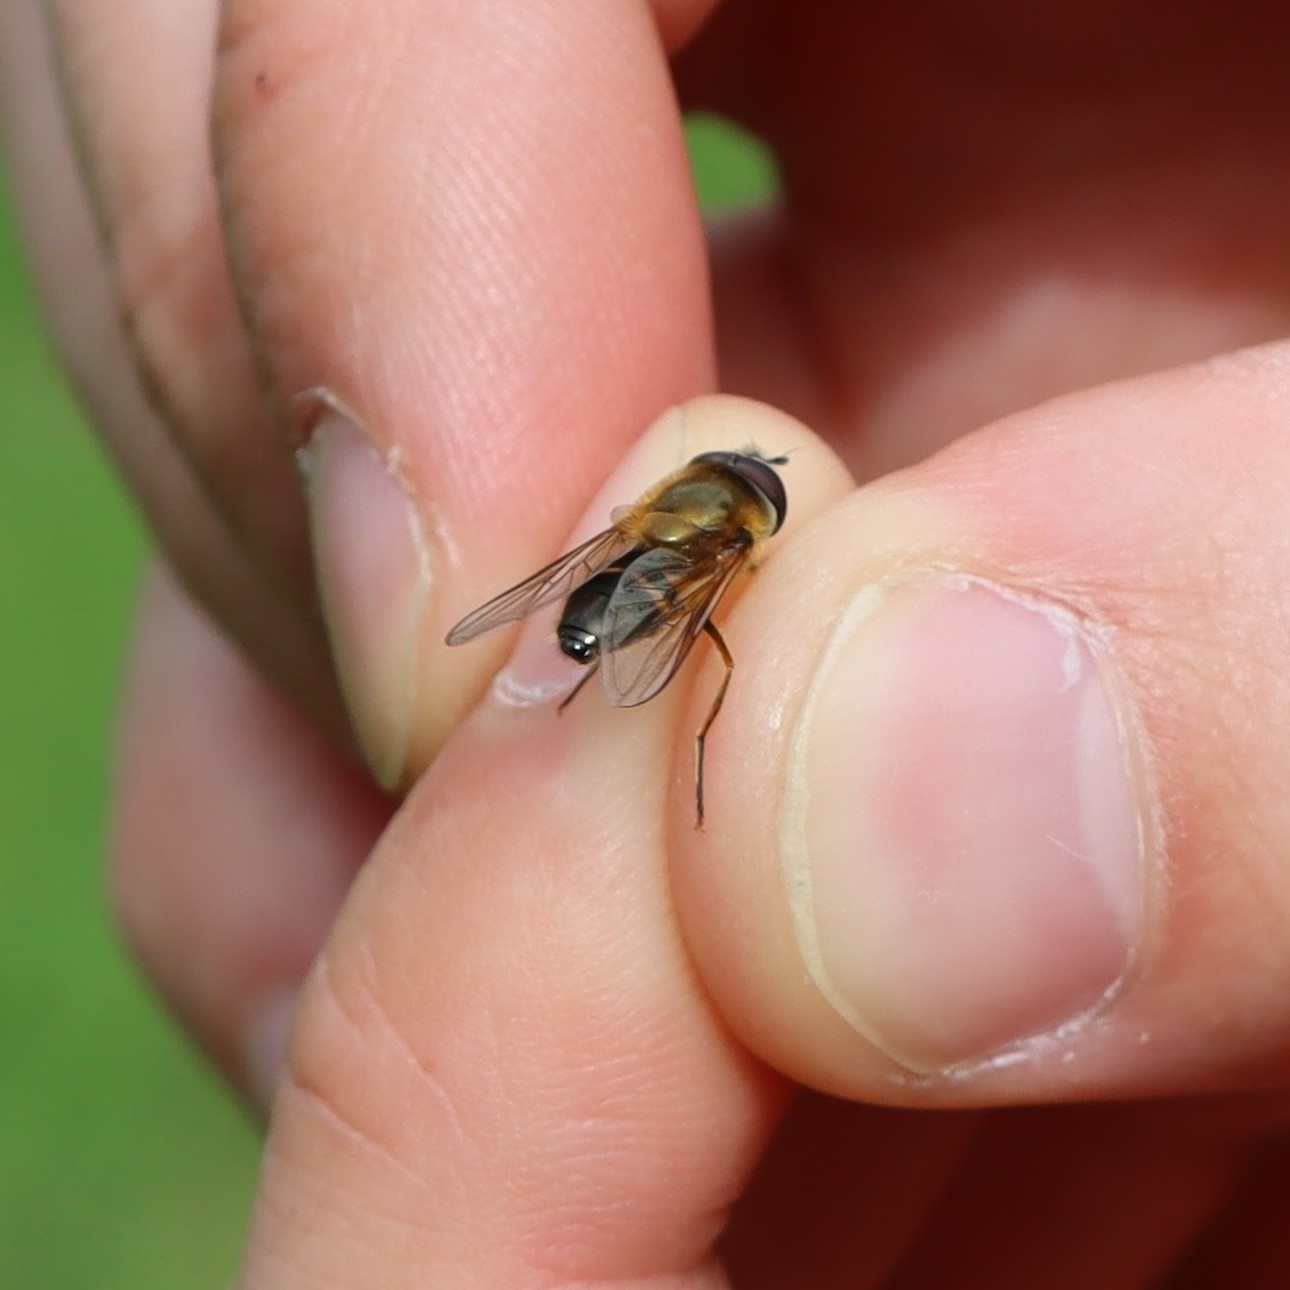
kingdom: Animalia
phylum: Arthropoda
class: Insecta
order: Diptera
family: Syrphidae
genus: Epistrophe
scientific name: Epistrophe eligans
